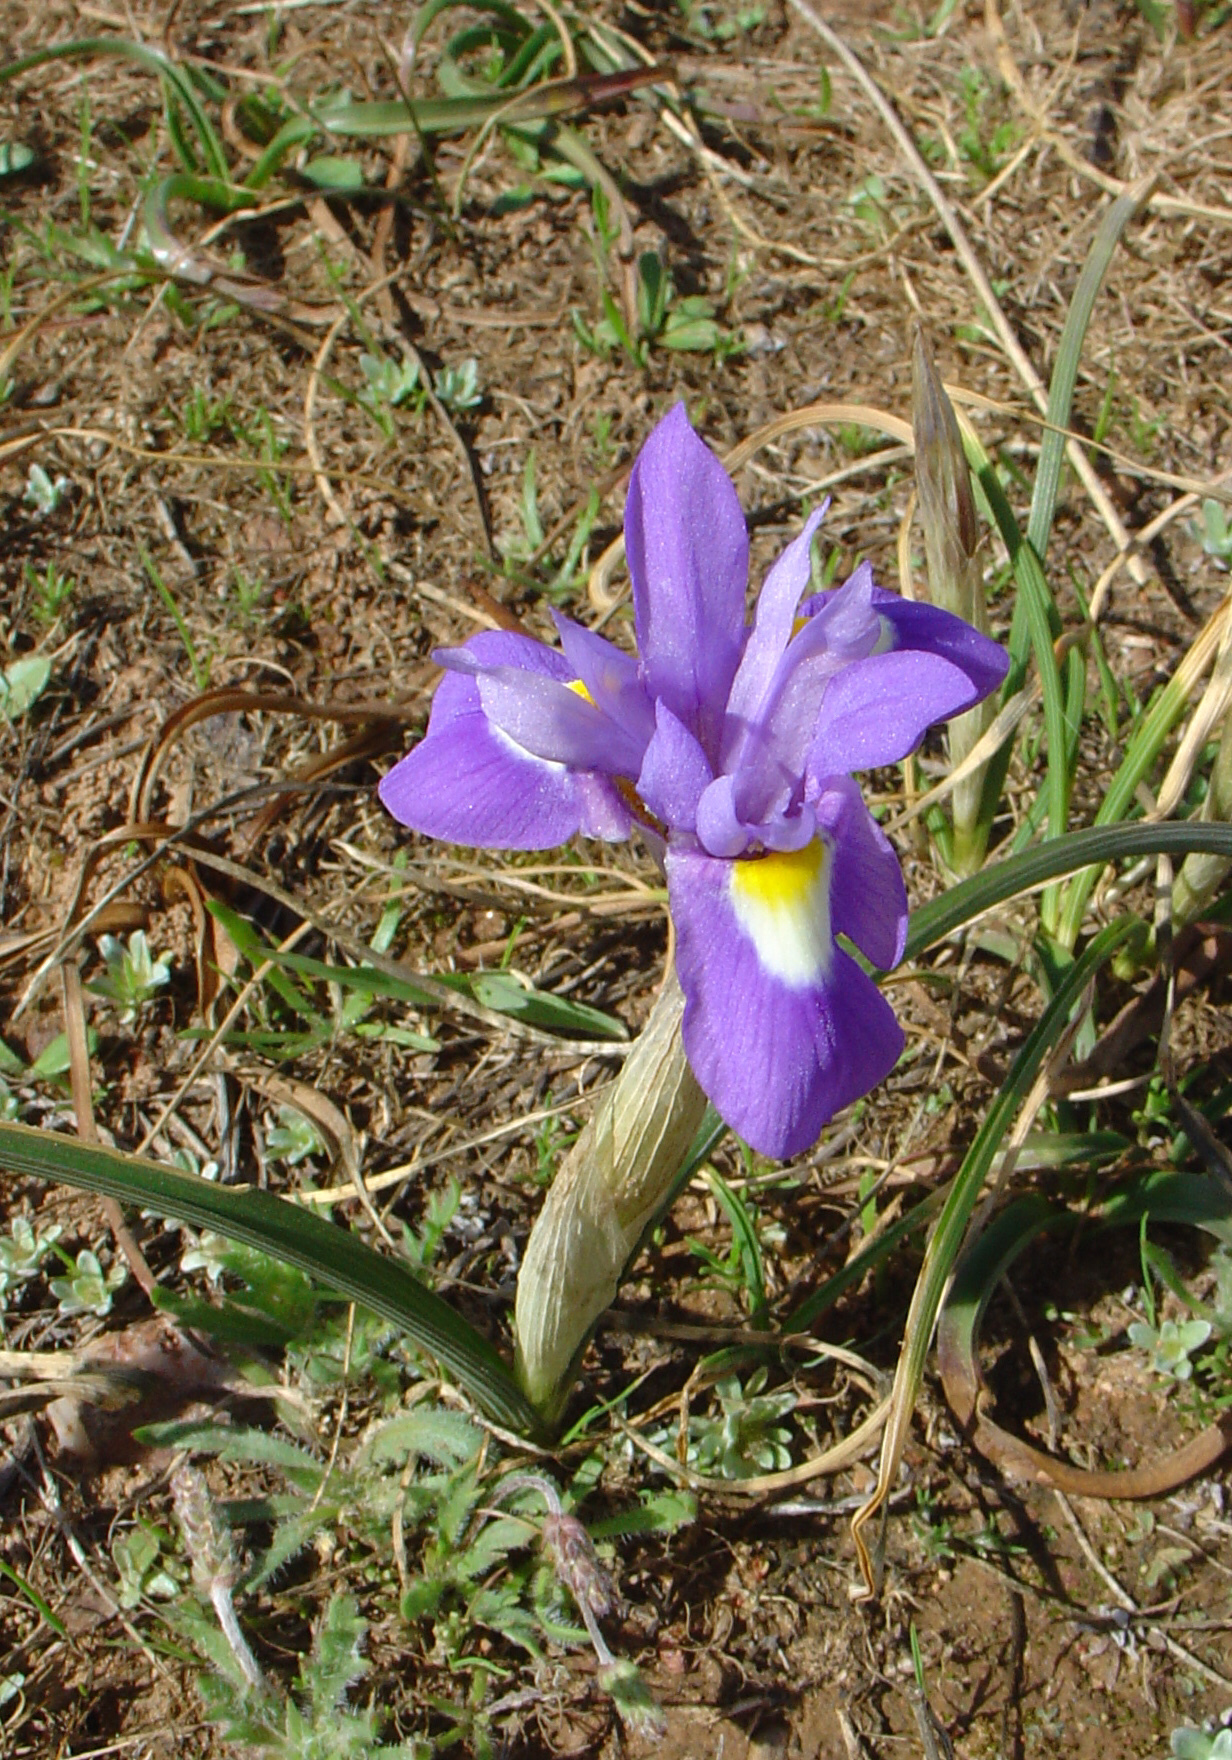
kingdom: Plantae
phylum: Tracheophyta
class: Liliopsida
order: Asparagales
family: Iridaceae
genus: Moraea
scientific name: Moraea sisyrinchium
